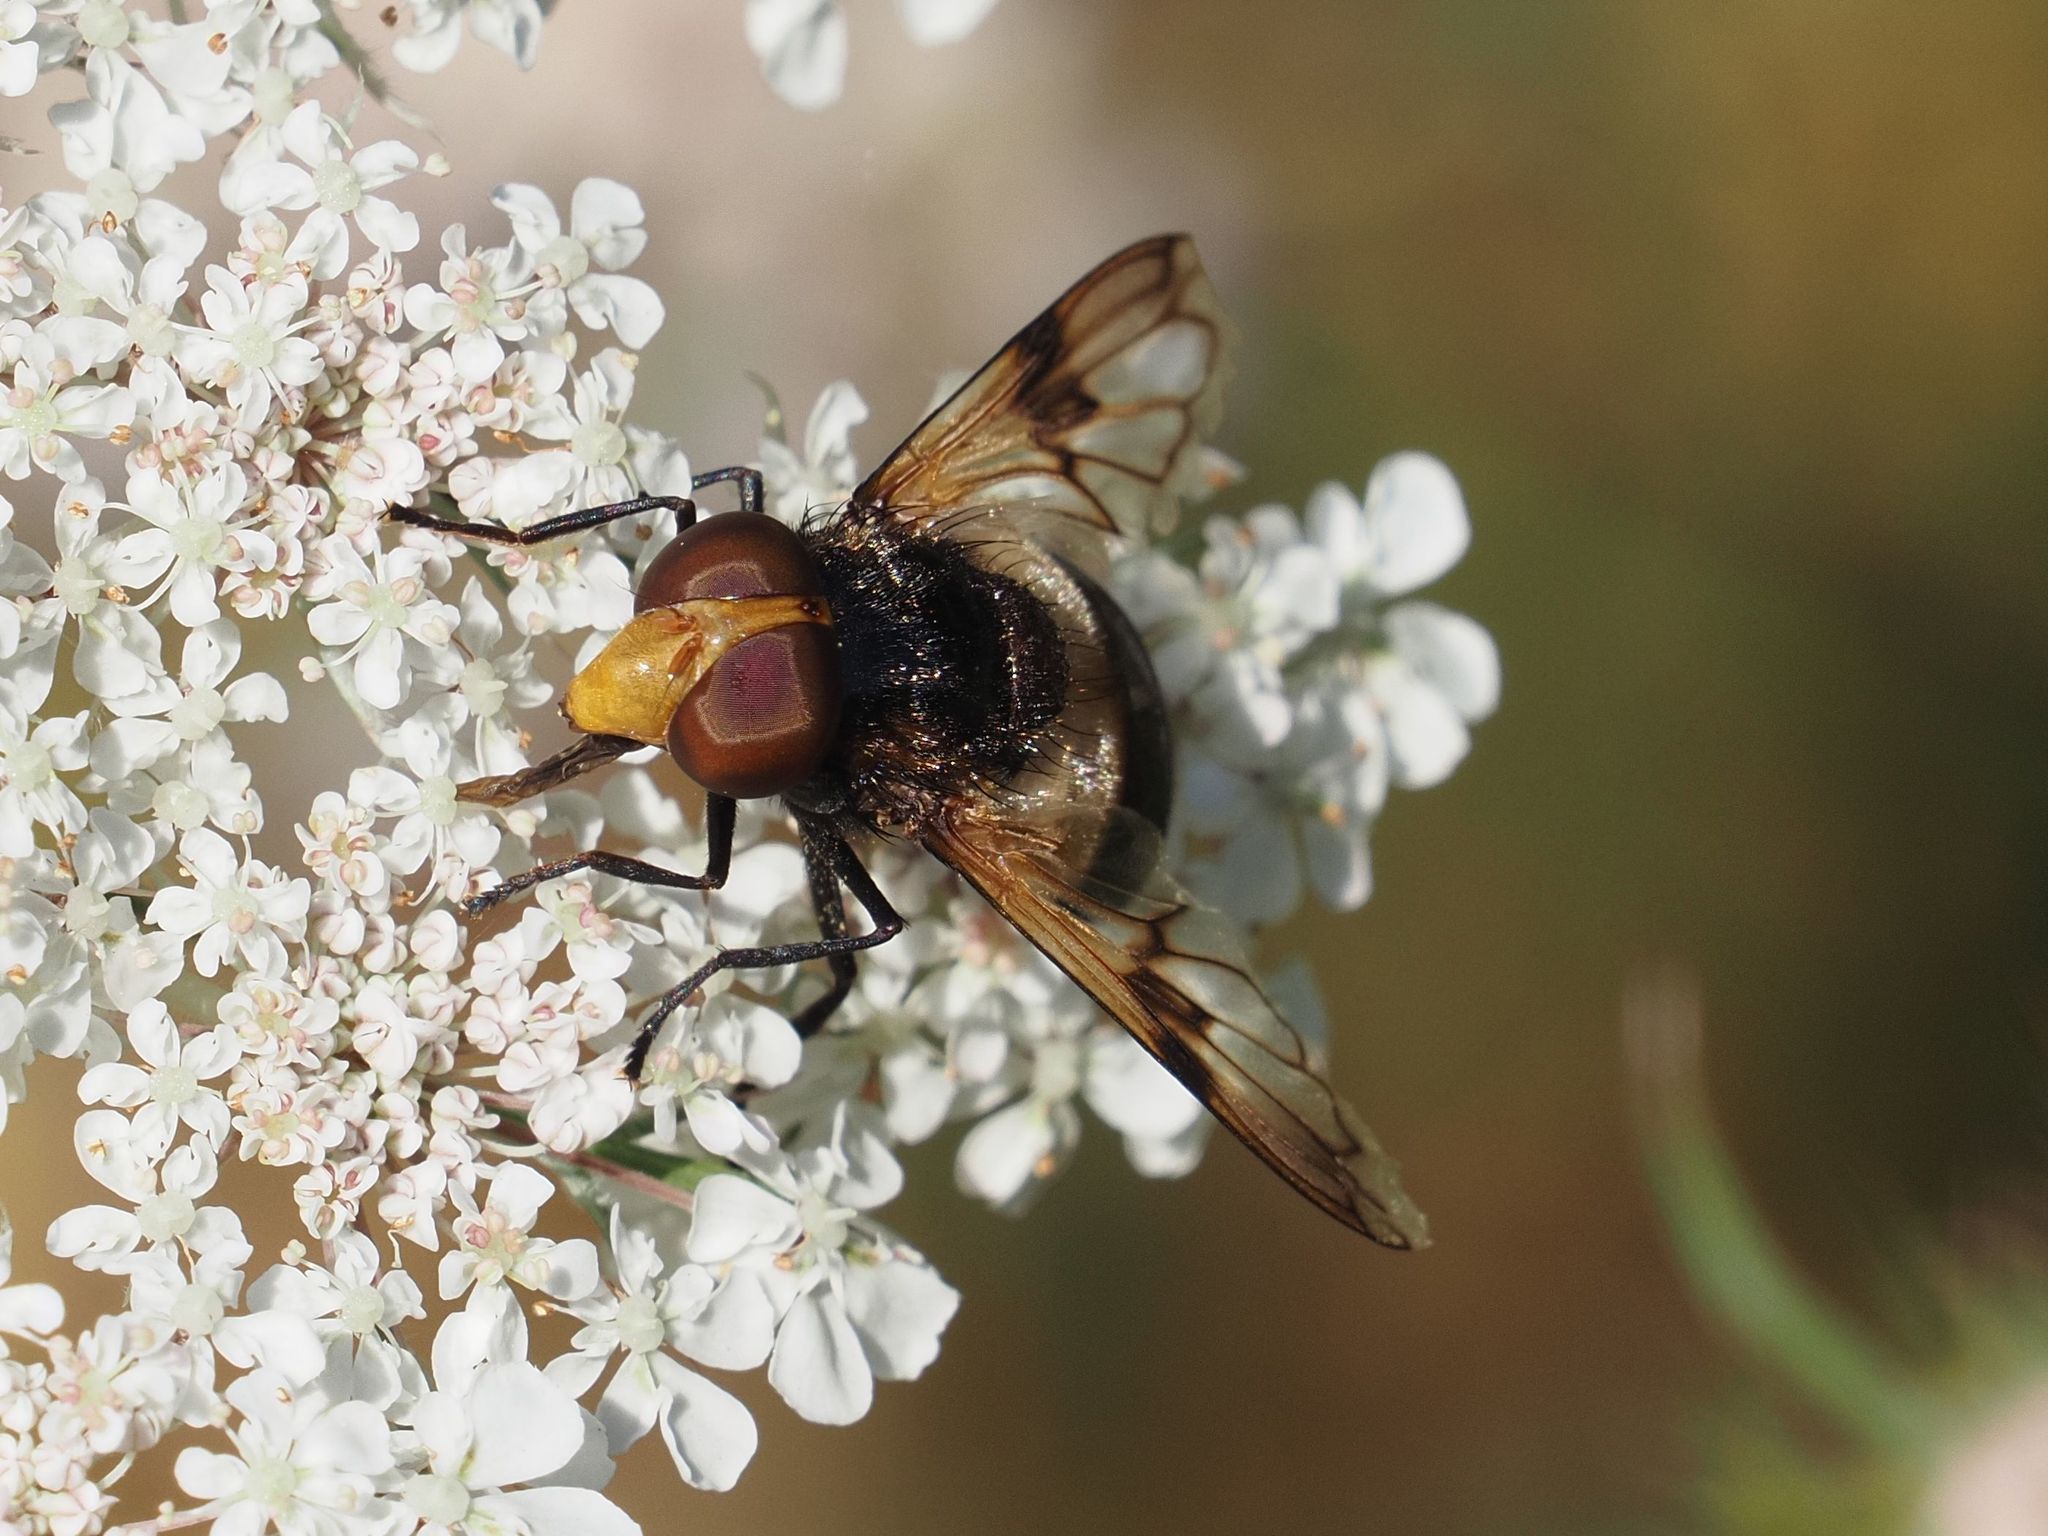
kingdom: Animalia
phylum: Arthropoda
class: Insecta
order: Diptera
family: Syrphidae
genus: Volucella
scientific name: Volucella pellucens
